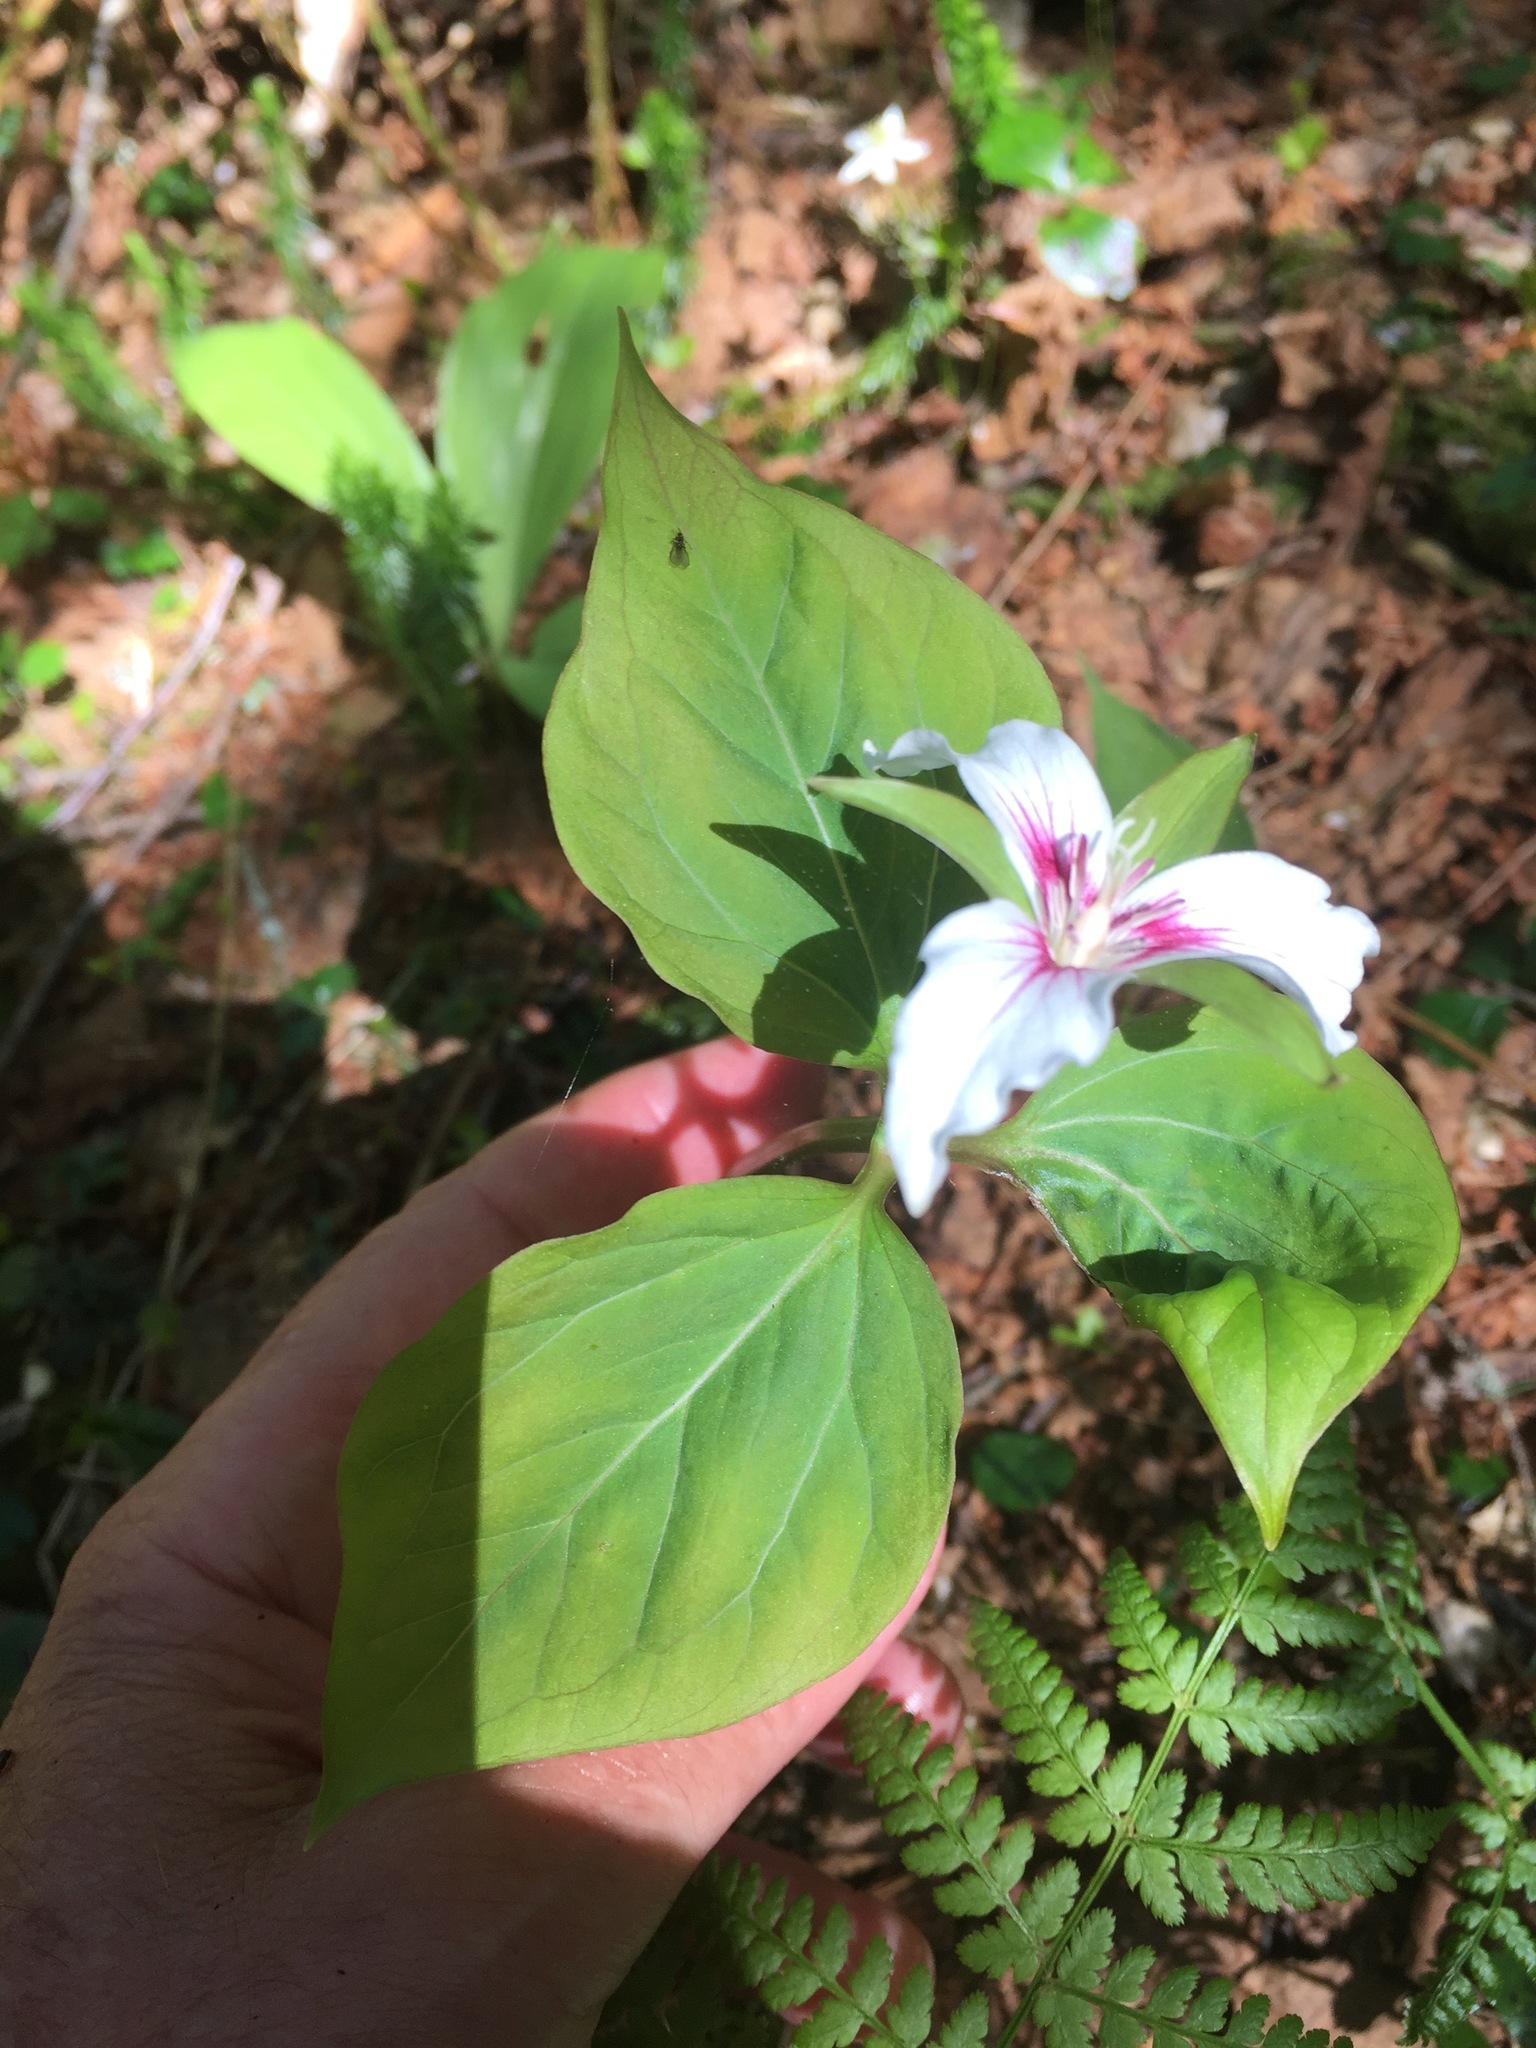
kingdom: Plantae
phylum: Tracheophyta
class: Liliopsida
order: Liliales
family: Melanthiaceae
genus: Trillium
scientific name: Trillium undulatum
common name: Paint trillium
